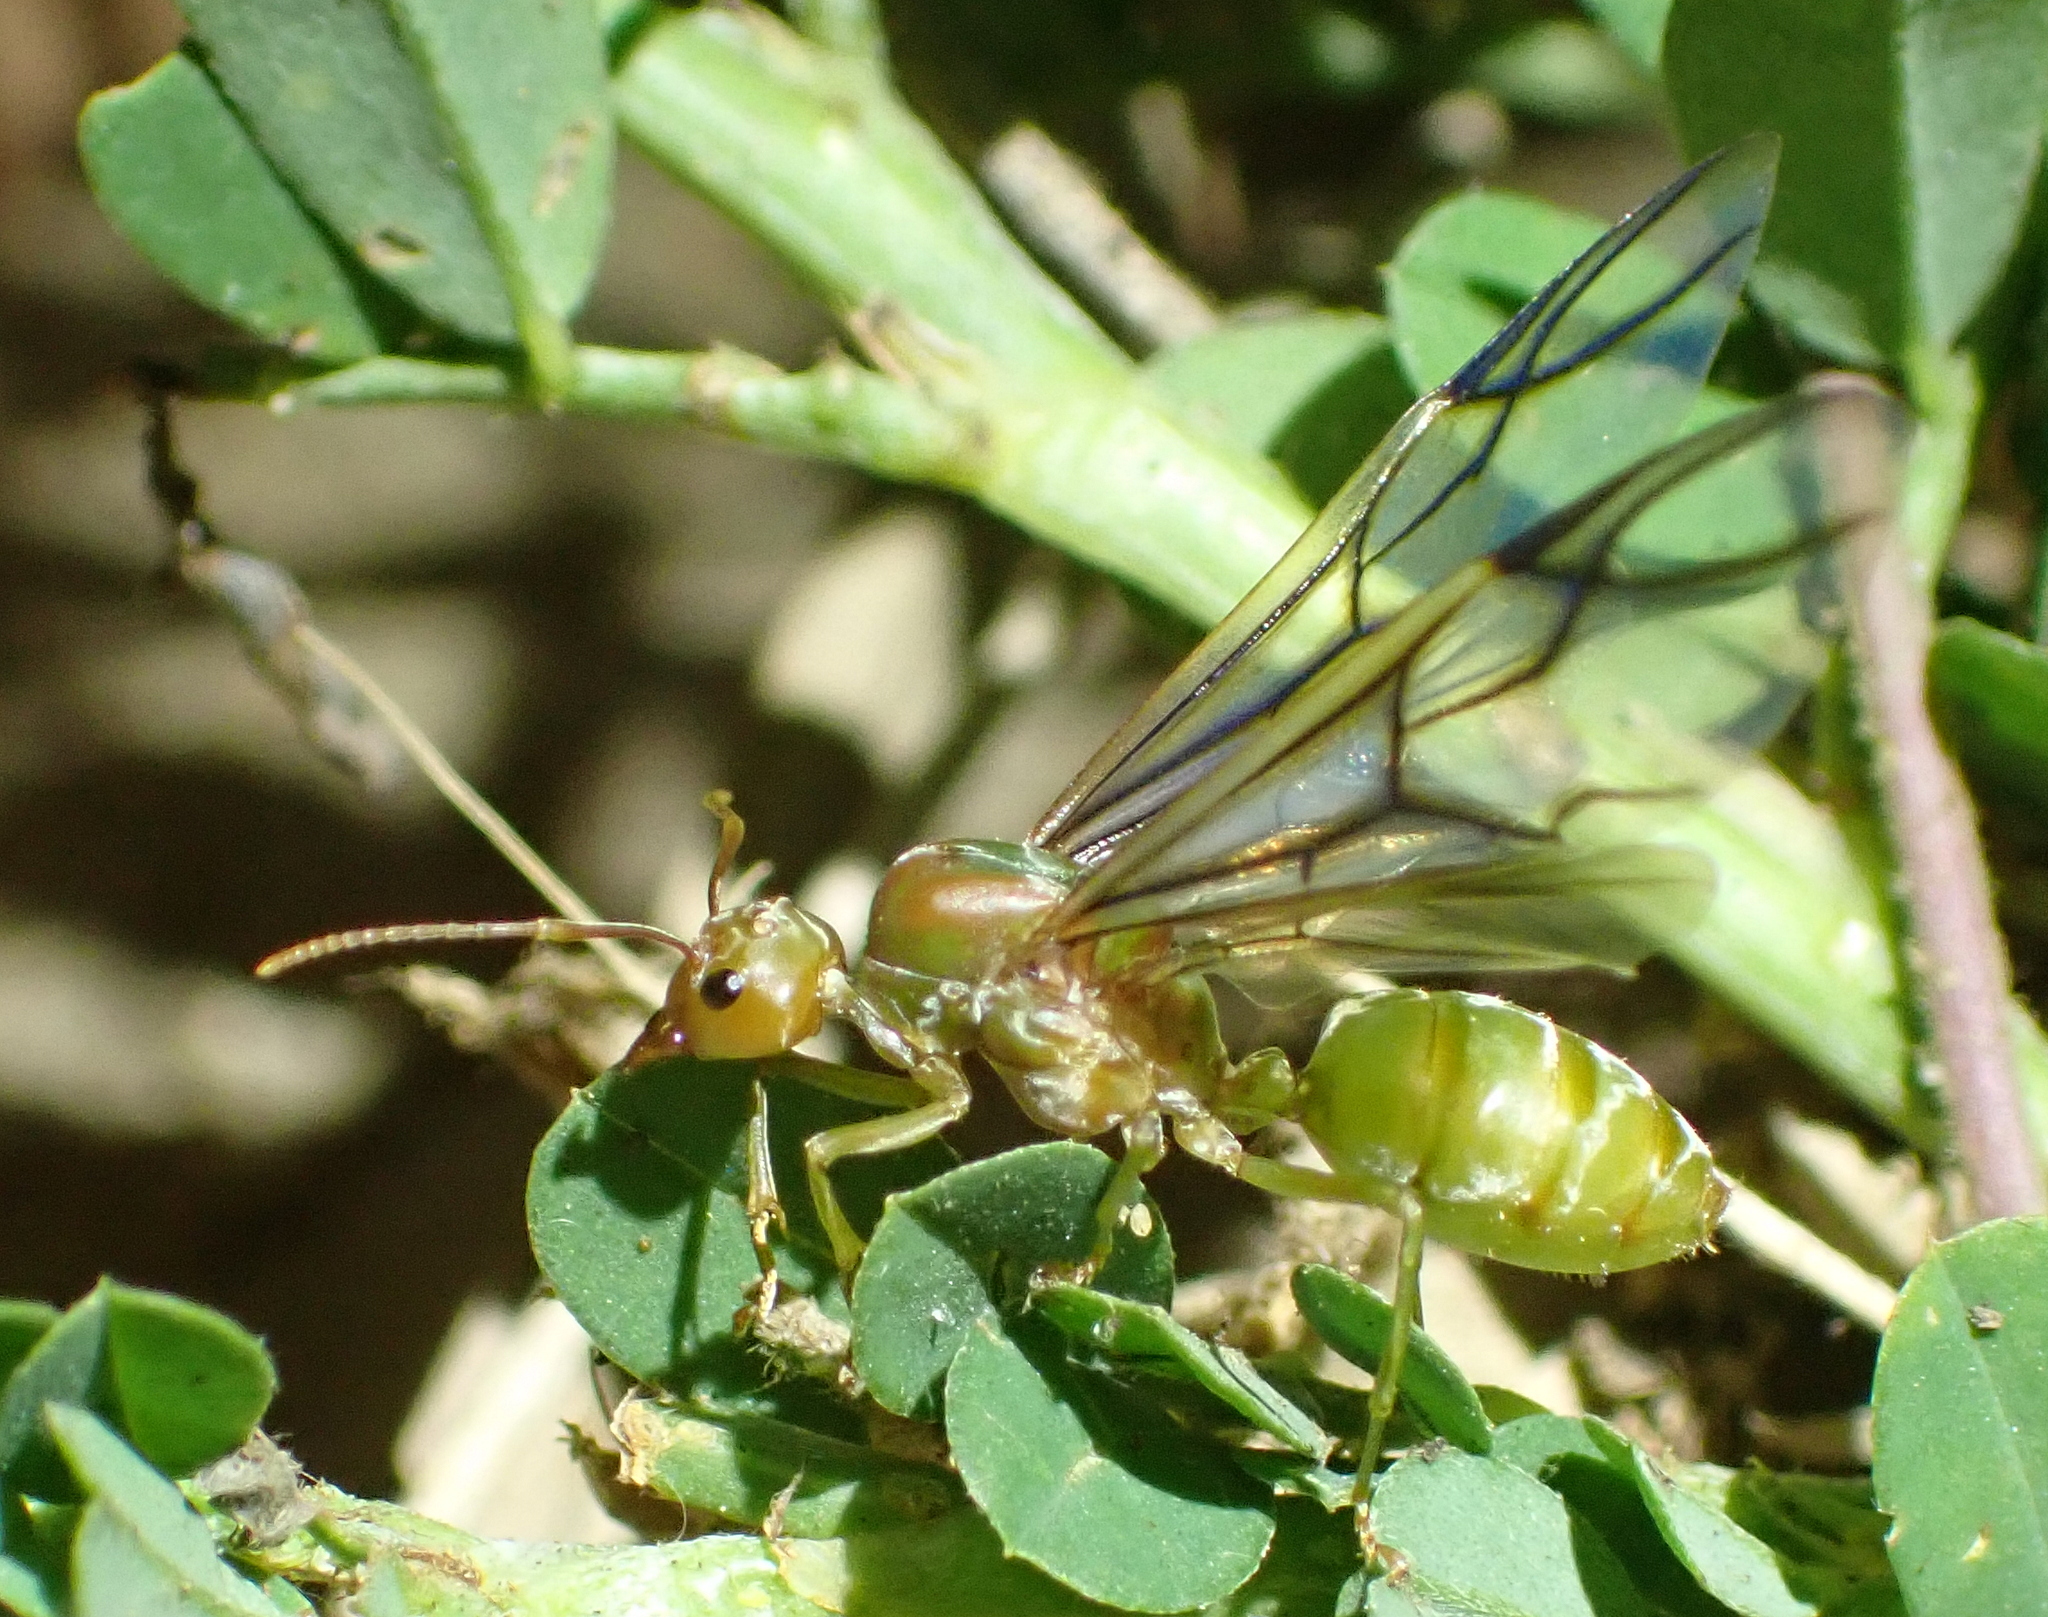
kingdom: Animalia
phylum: Arthropoda
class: Insecta
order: Hymenoptera
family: Formicidae
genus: Oecophylla
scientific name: Oecophylla longinoda
